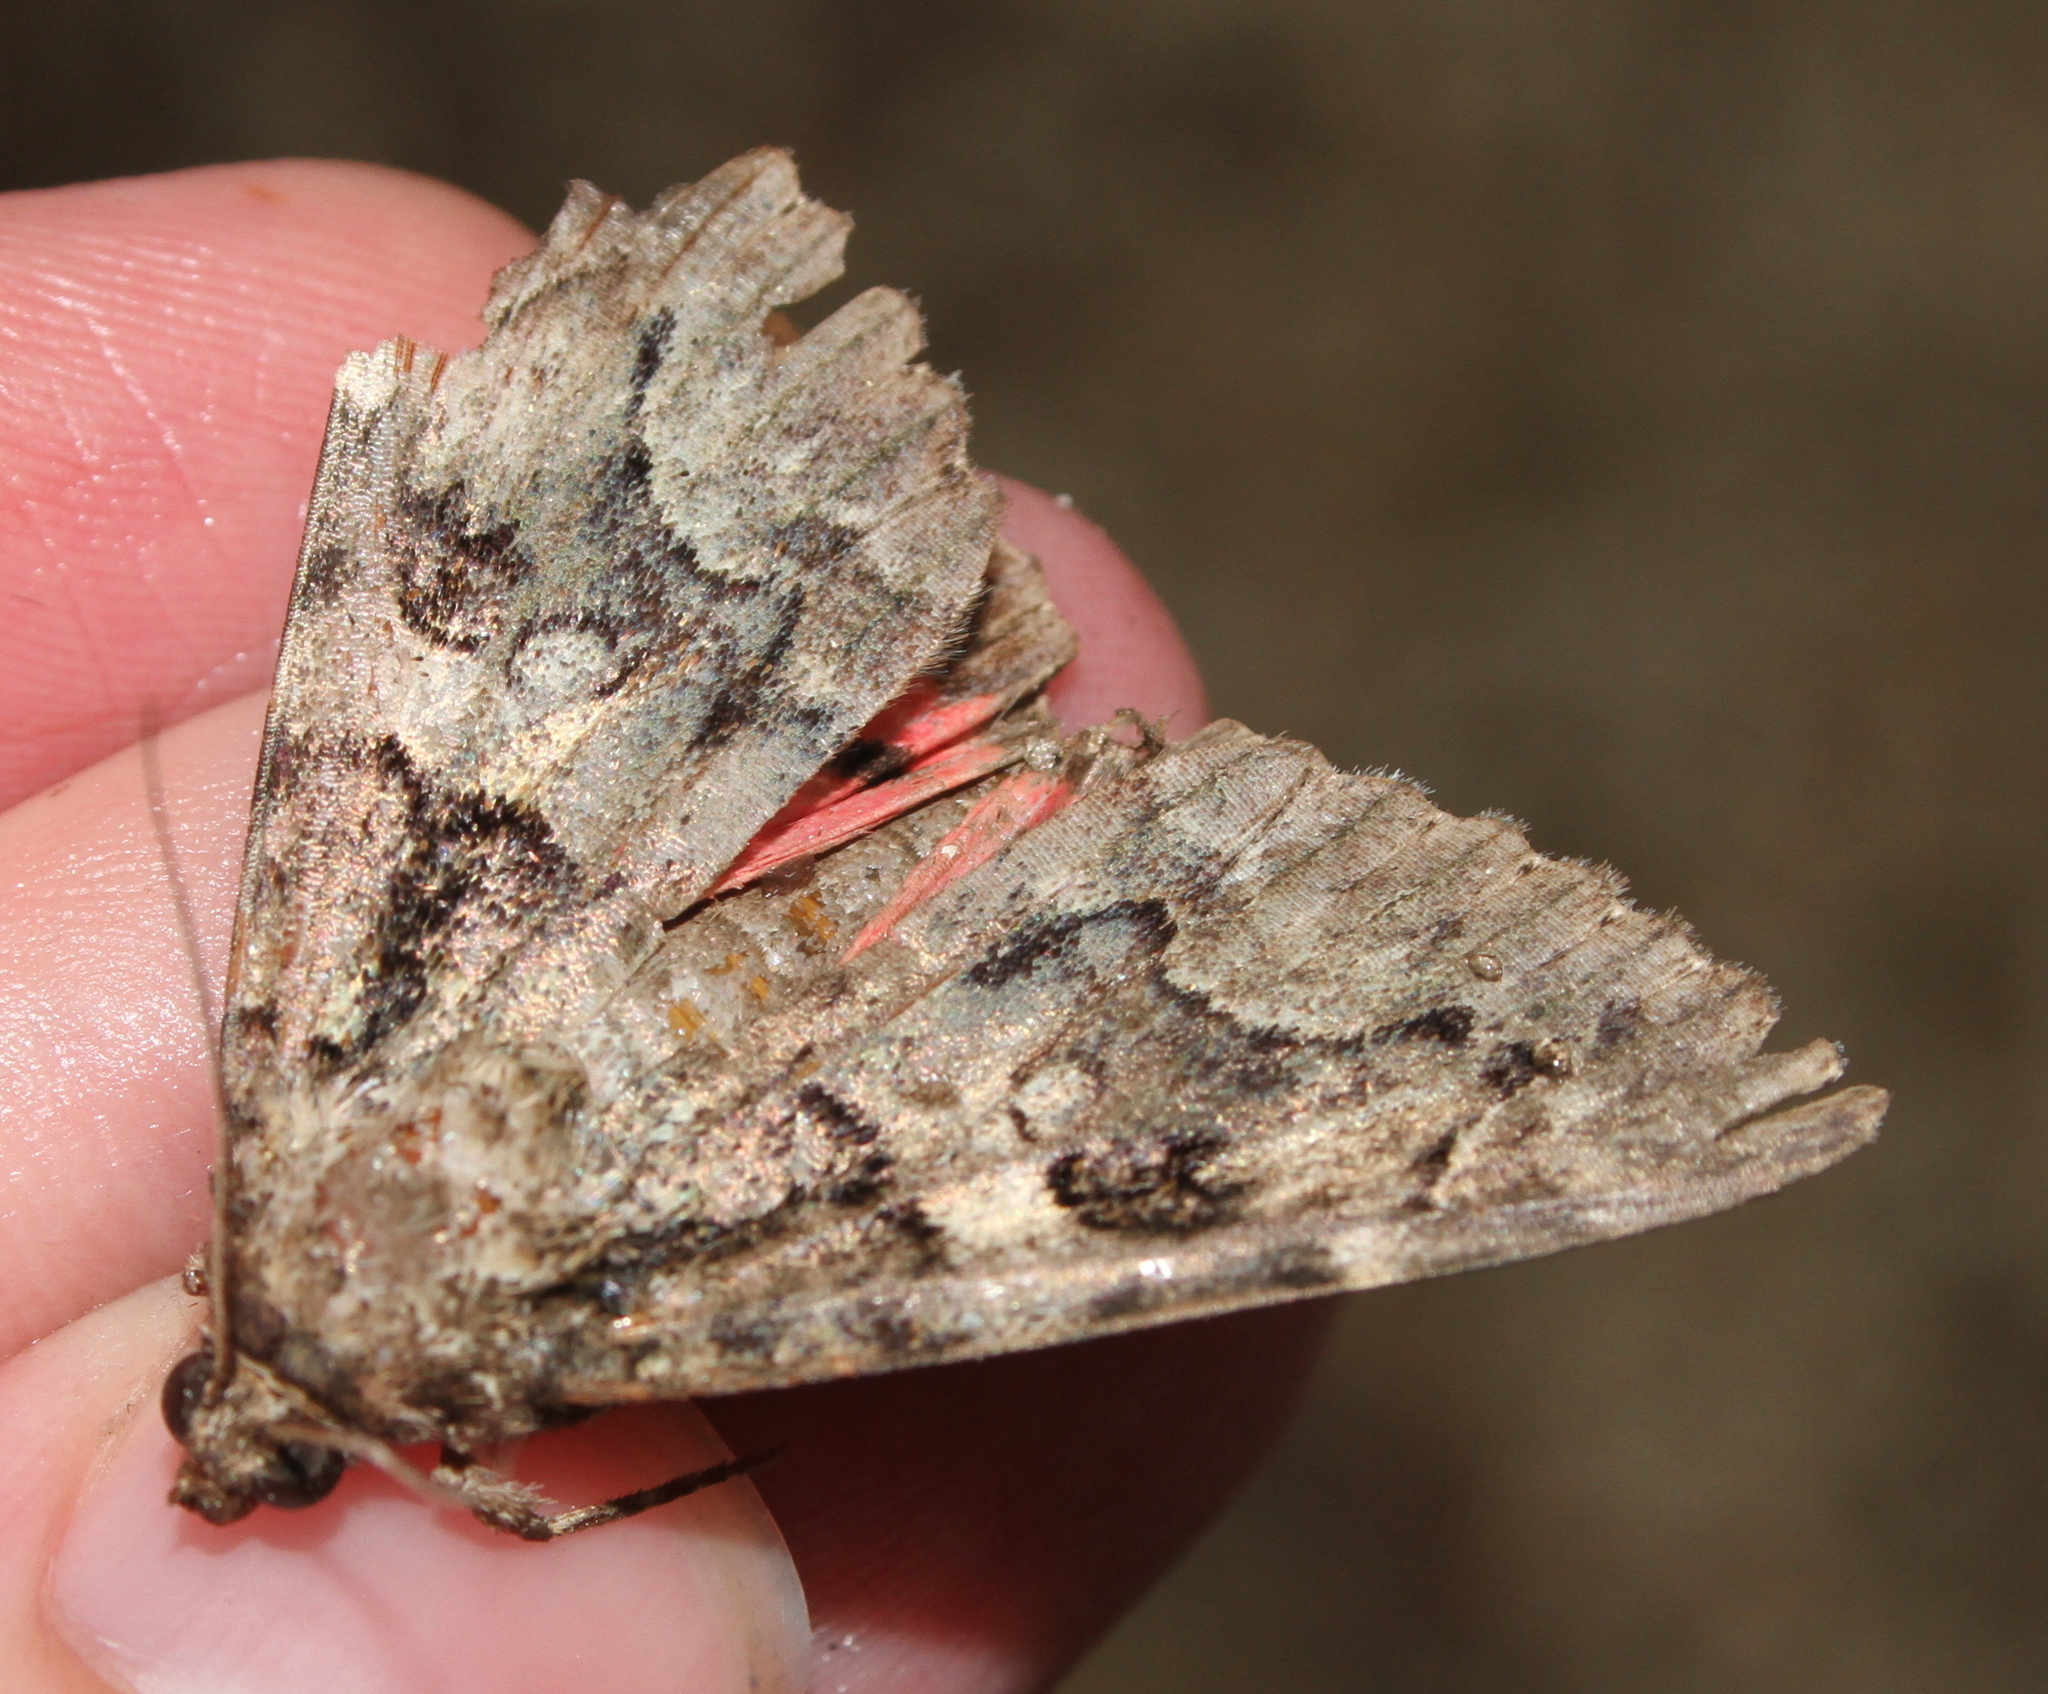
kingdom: Animalia
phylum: Arthropoda
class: Insecta
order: Lepidoptera
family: Erebidae
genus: Catocala
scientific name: Catocala coniuncta
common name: Minsmere crimson underwing
